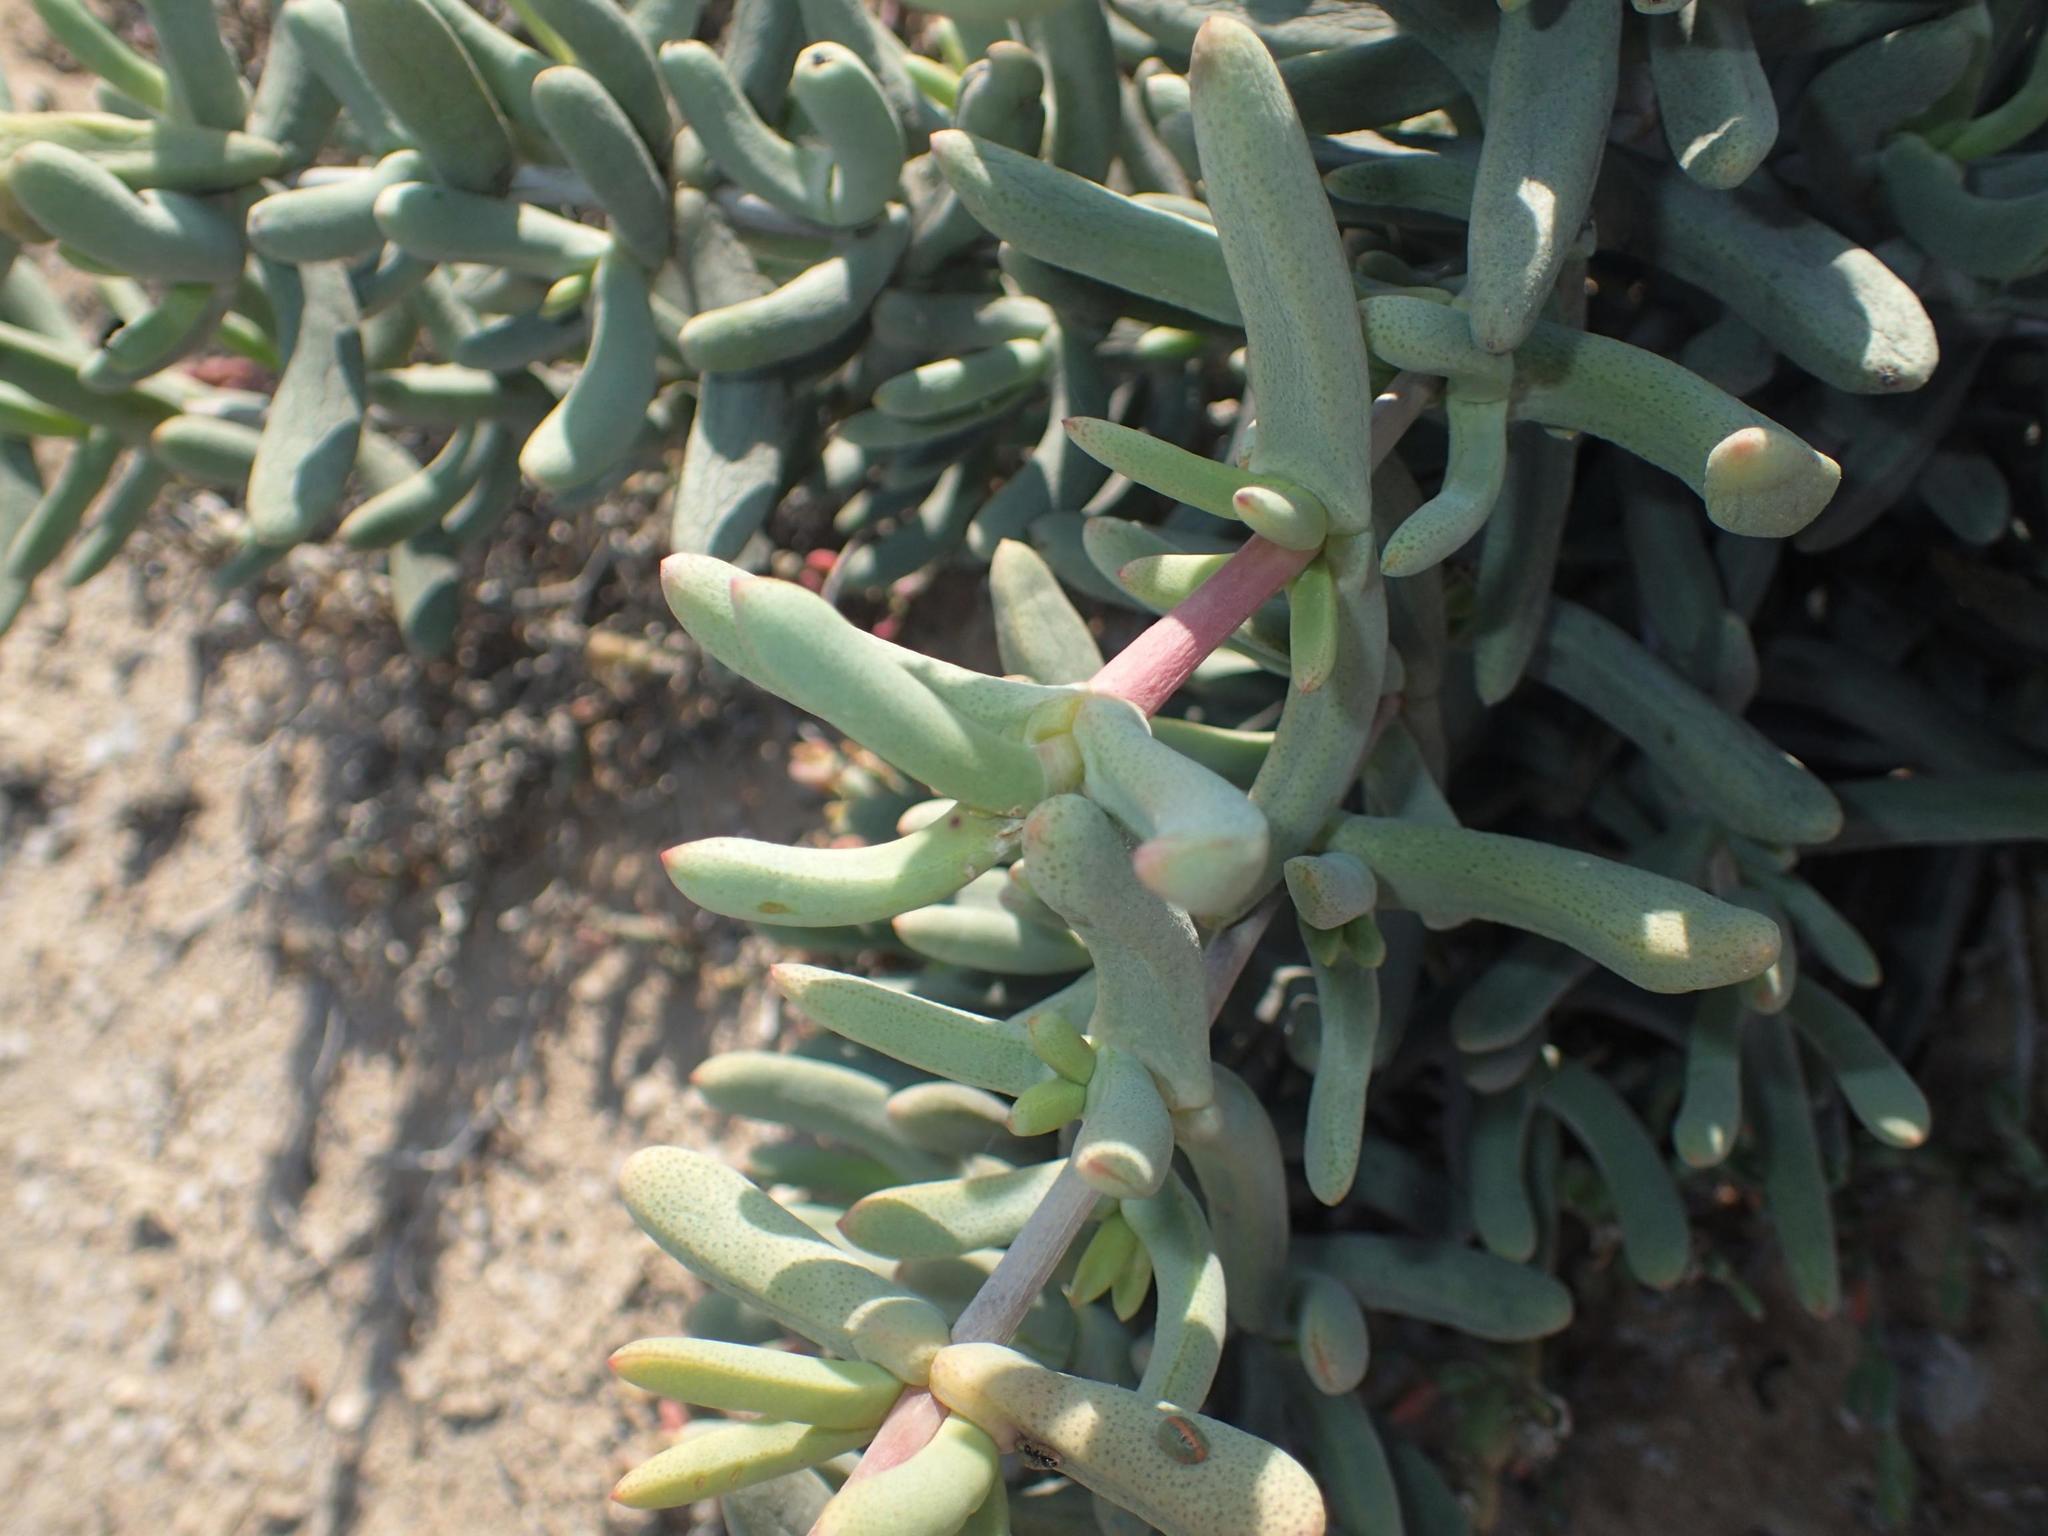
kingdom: Plantae
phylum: Tracheophyta
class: Magnoliopsida
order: Caryophyllales
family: Aizoaceae
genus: Stoeberia
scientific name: Stoeberia beetzii
